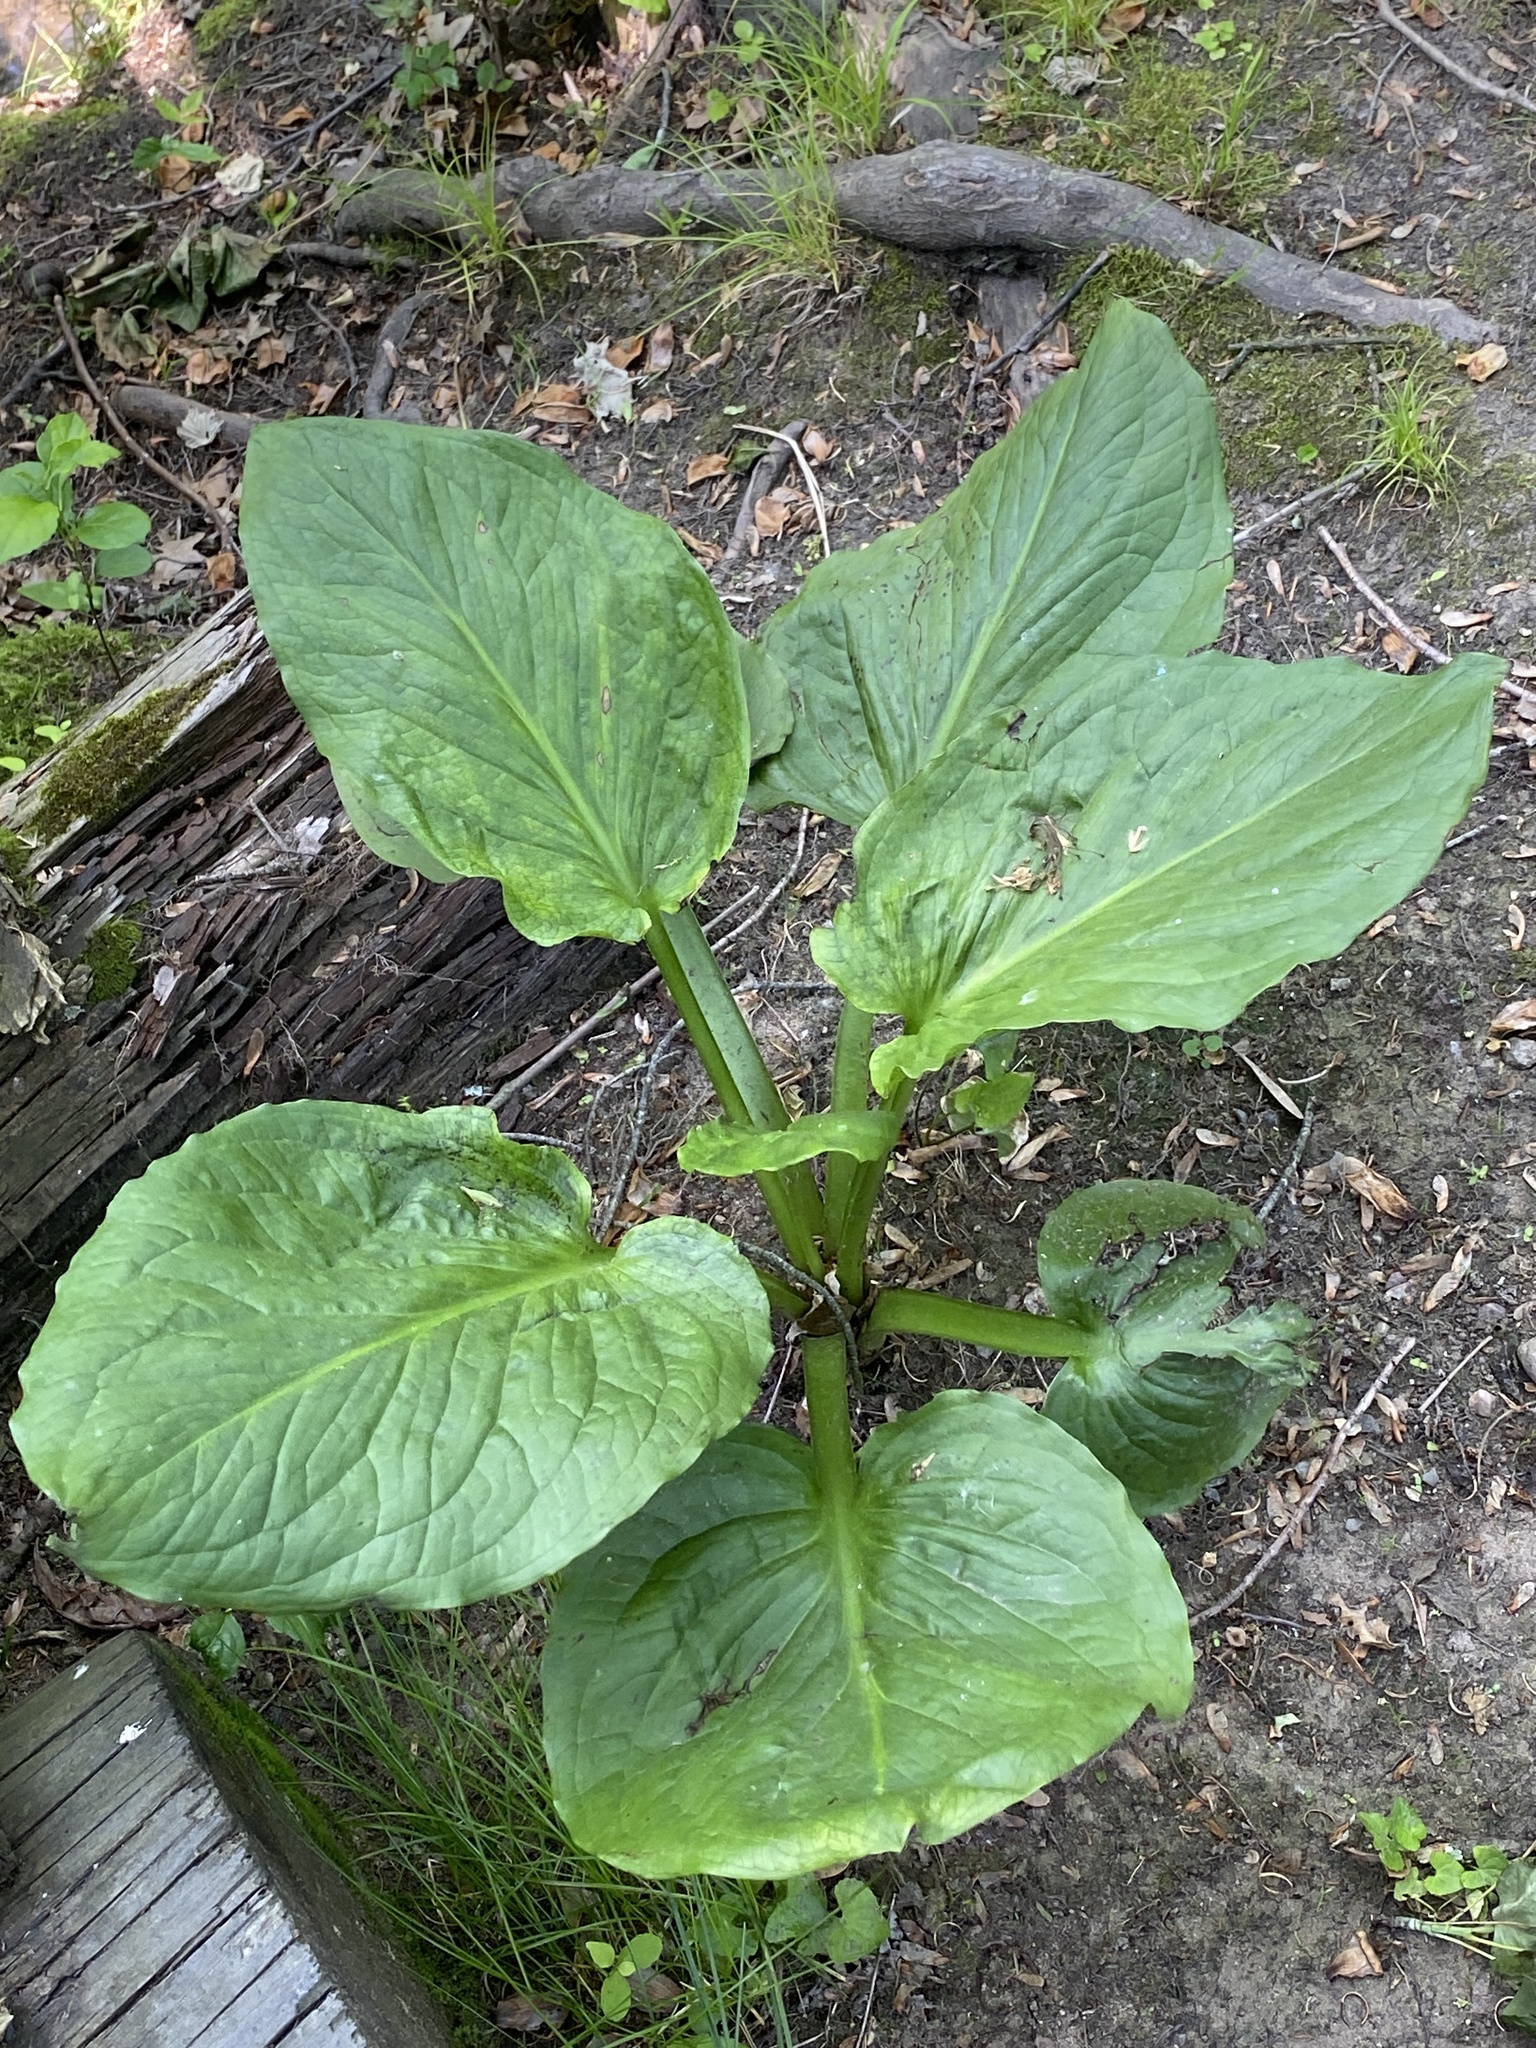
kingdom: Plantae
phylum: Tracheophyta
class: Liliopsida
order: Alismatales
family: Araceae
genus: Symplocarpus
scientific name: Symplocarpus foetidus
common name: Eastern skunk cabbage
